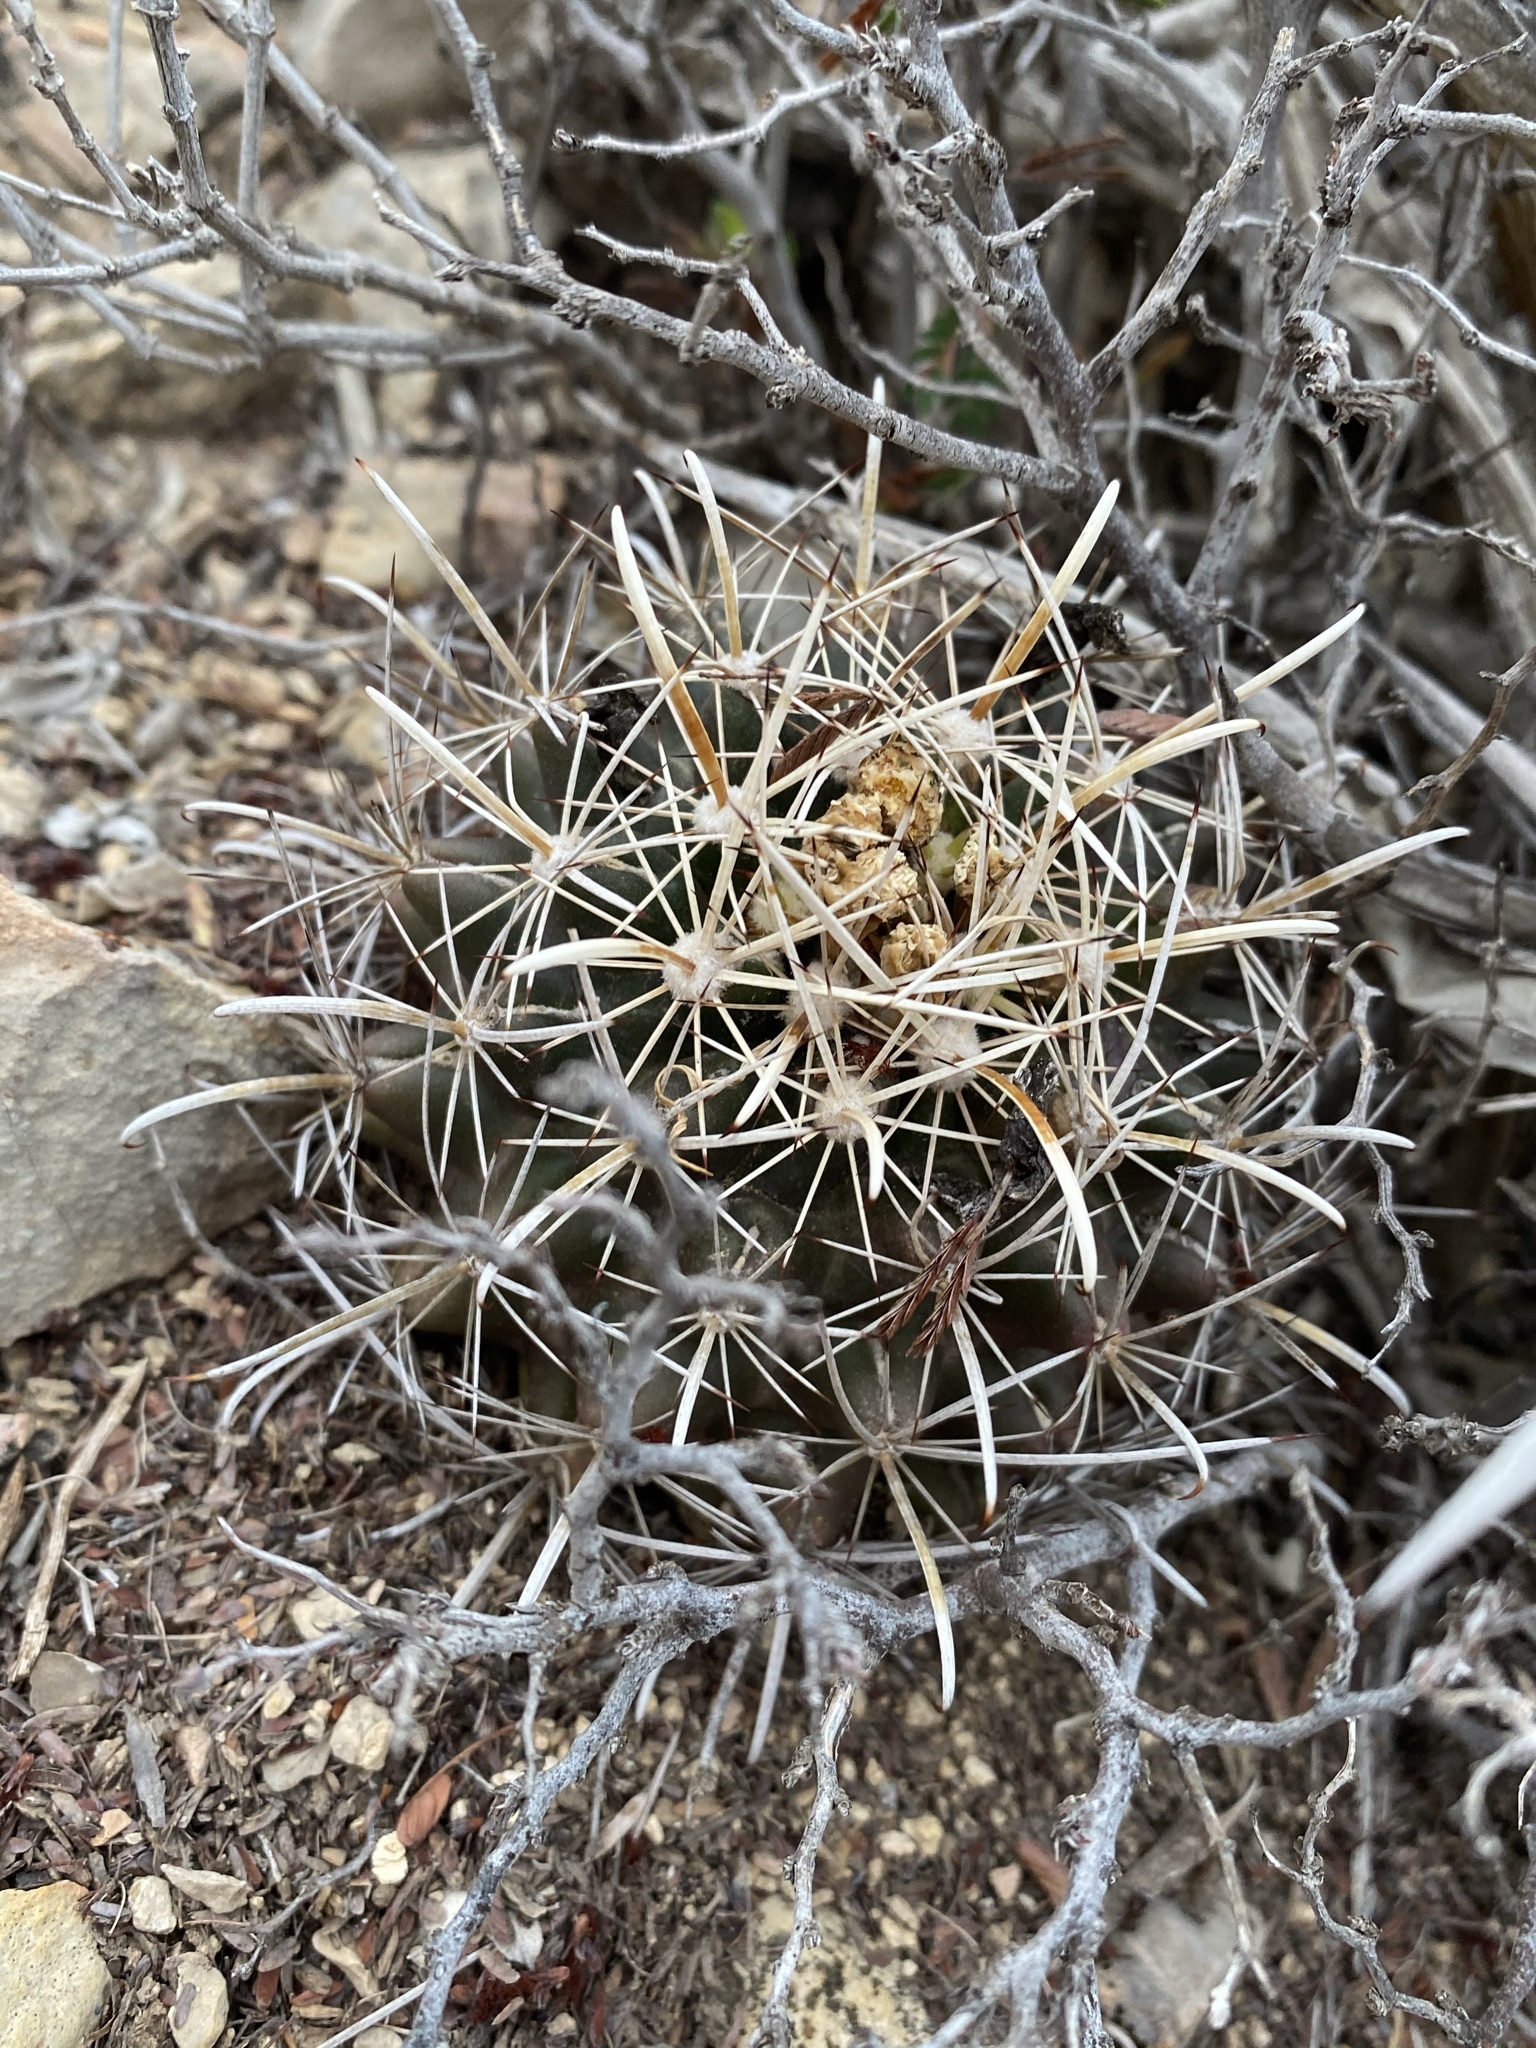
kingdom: Plantae
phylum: Tracheophyta
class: Magnoliopsida
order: Caryophyllales
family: Cactaceae
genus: Sclerocactus
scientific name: Sclerocactus brevihamatus
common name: Engelmann's fishhook cactus
